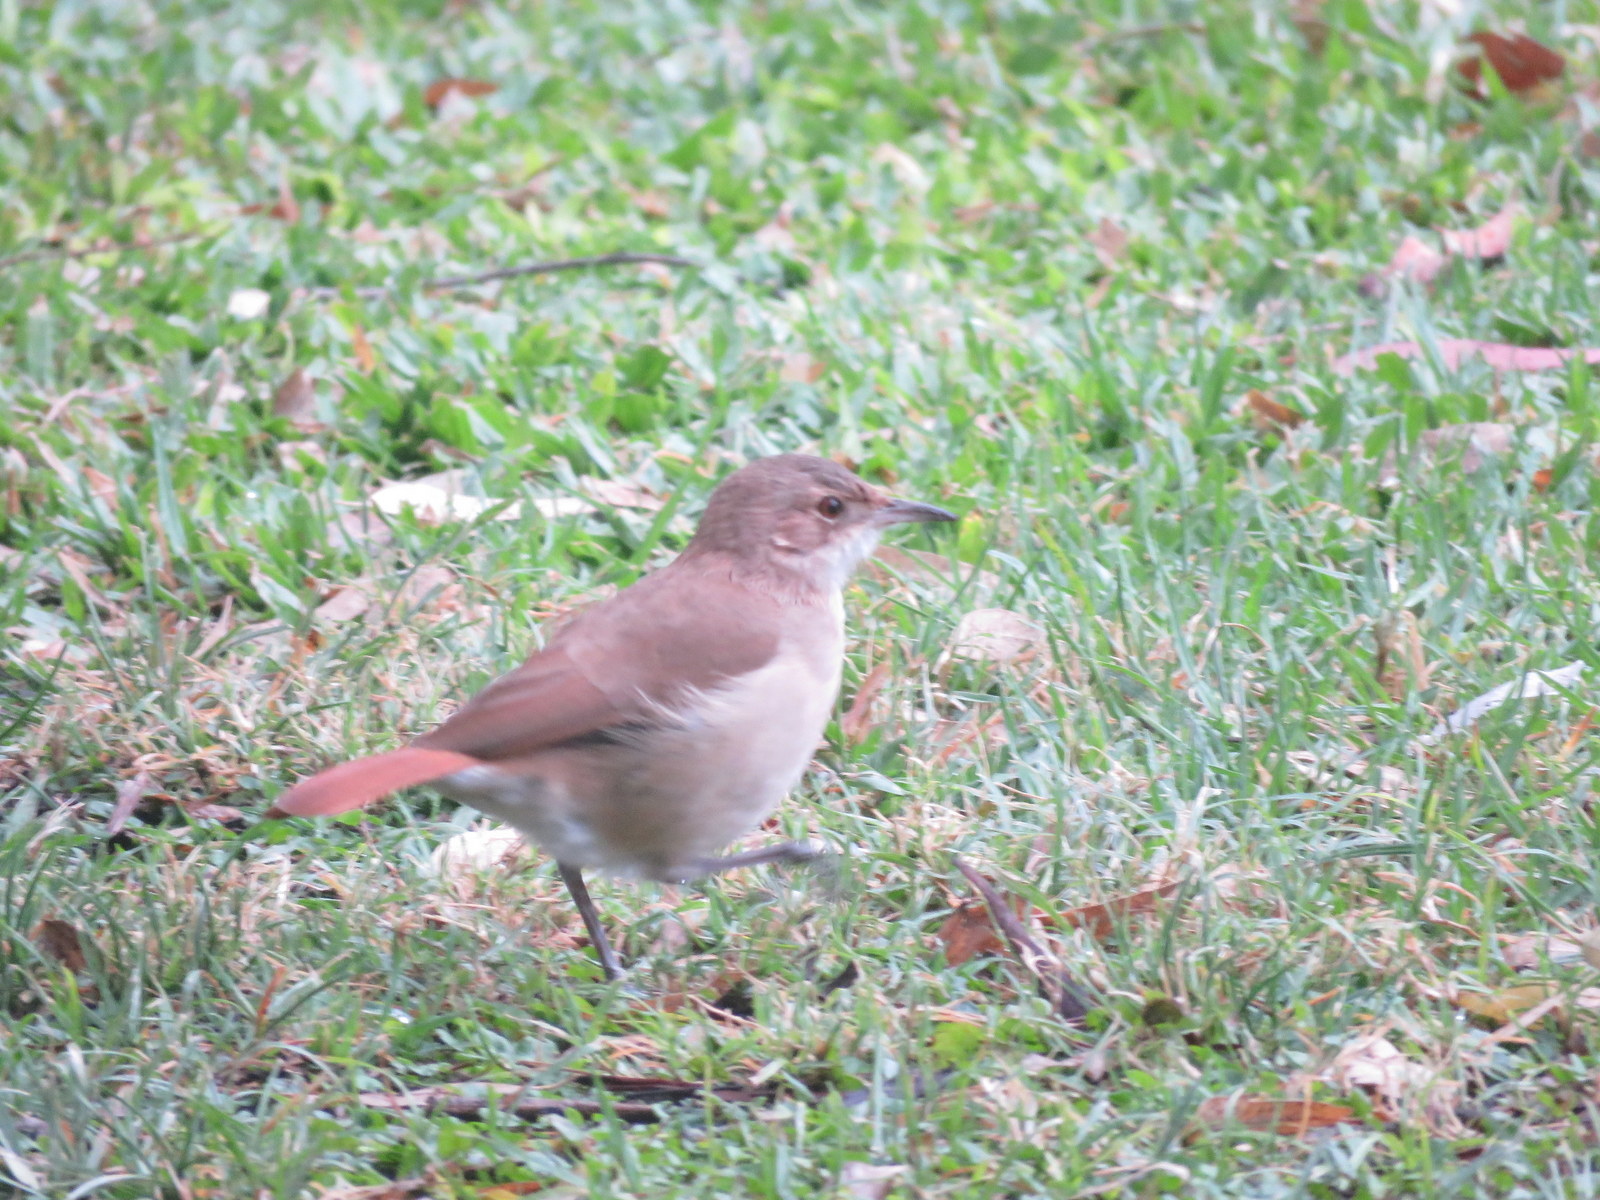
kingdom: Animalia
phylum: Chordata
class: Aves
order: Passeriformes
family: Furnariidae
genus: Furnarius
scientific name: Furnarius rufus
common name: Rufous hornero
